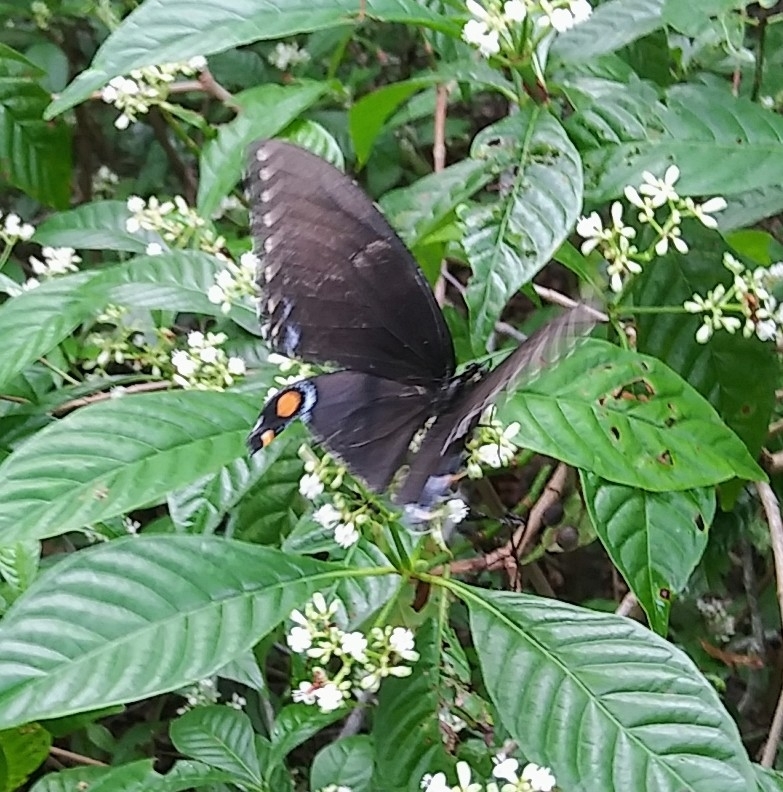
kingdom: Animalia
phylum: Arthropoda
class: Insecta
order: Lepidoptera
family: Papilionidae
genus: Papilio
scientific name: Papilio glaucus
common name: Tiger swallowtail
